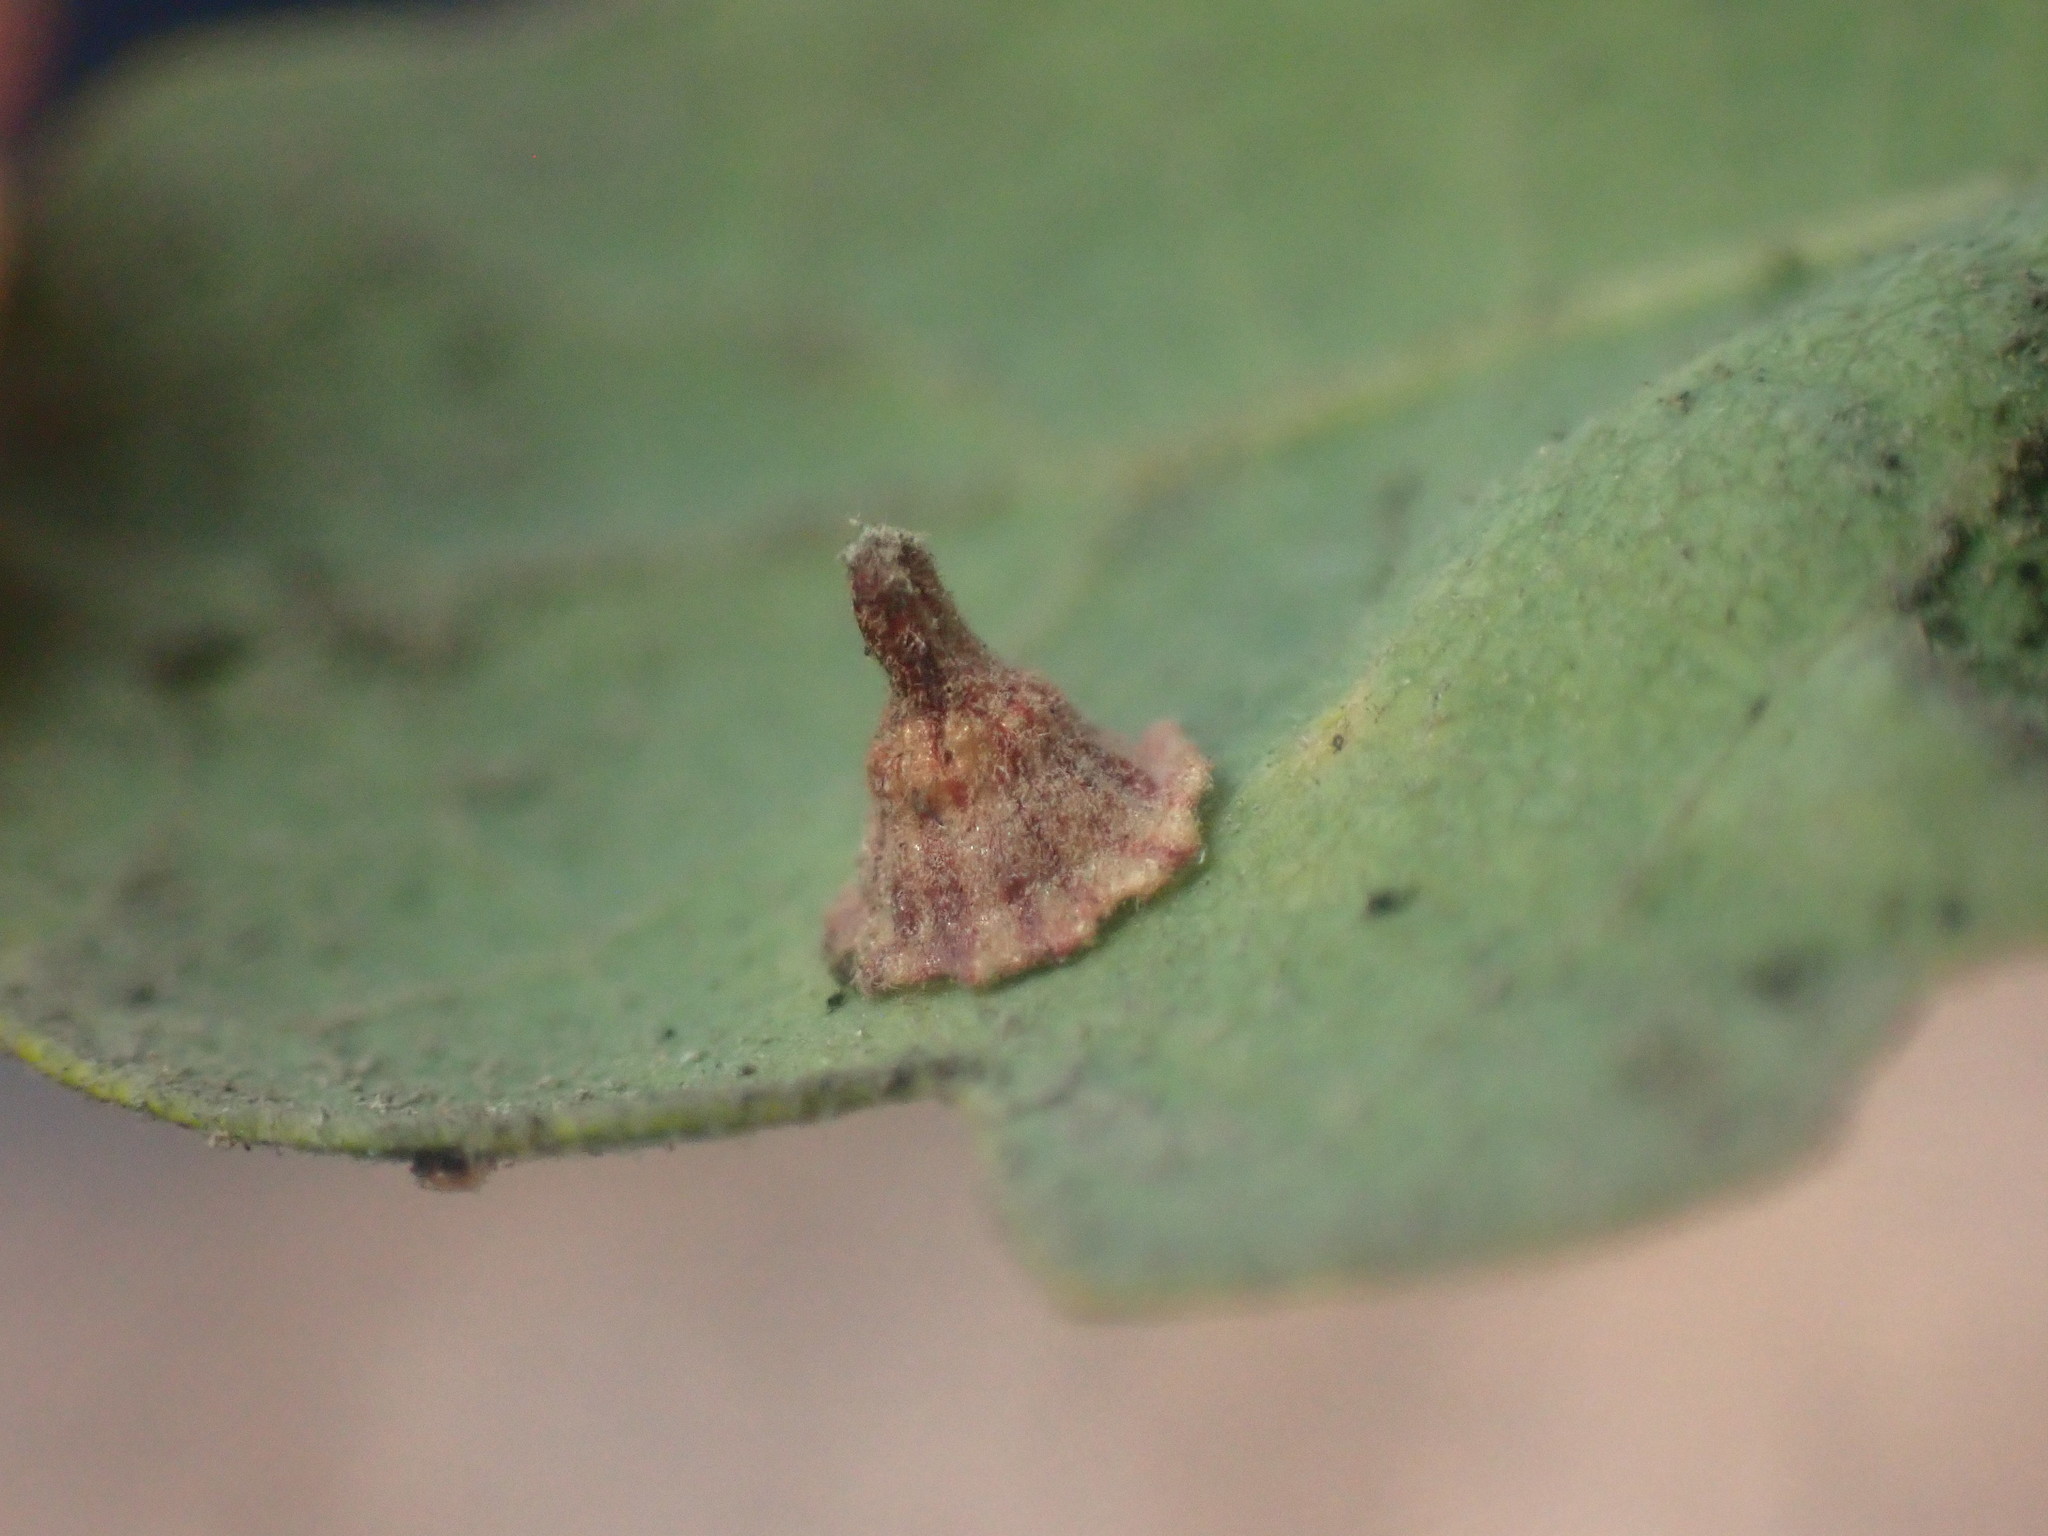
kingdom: Animalia
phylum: Arthropoda
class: Insecta
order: Hymenoptera
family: Cynipidae
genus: Andricus
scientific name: Andricus
